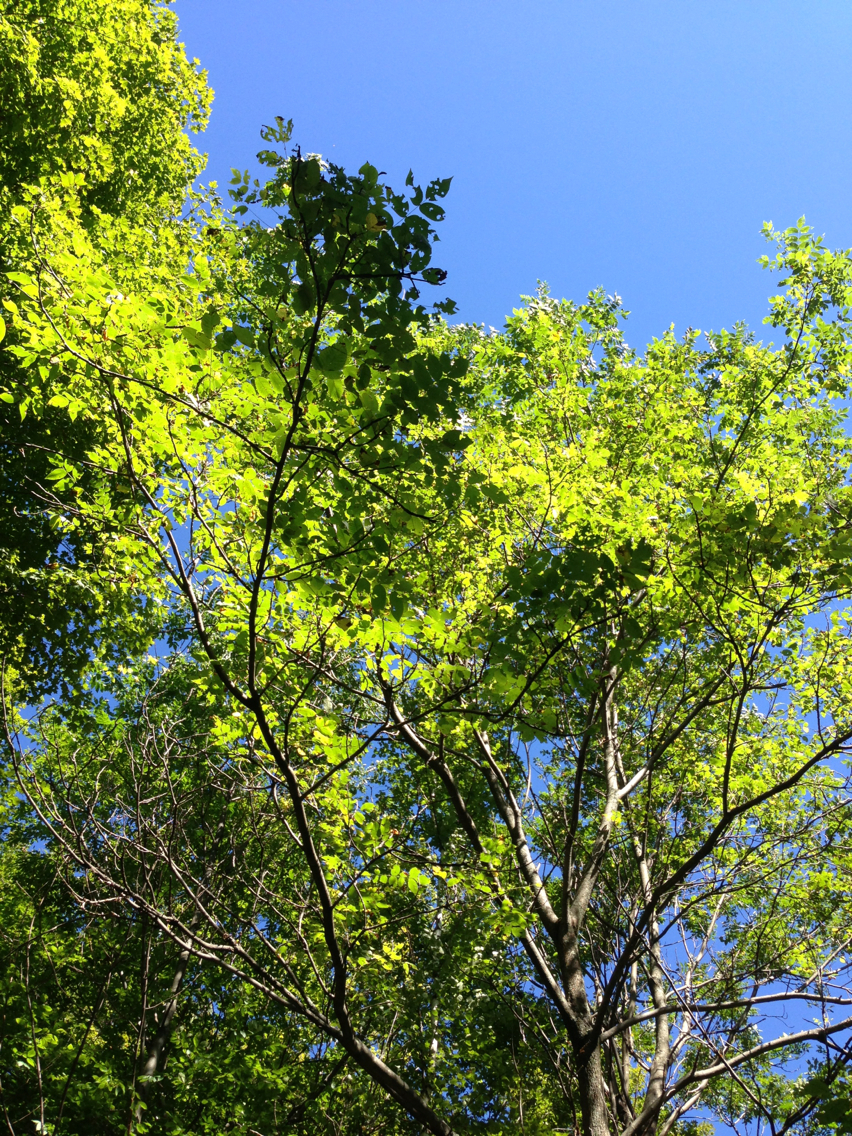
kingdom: Plantae
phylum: Tracheophyta
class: Magnoliopsida
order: Fagales
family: Juglandaceae
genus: Juglans
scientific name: Juglans cinerea
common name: Butternut
